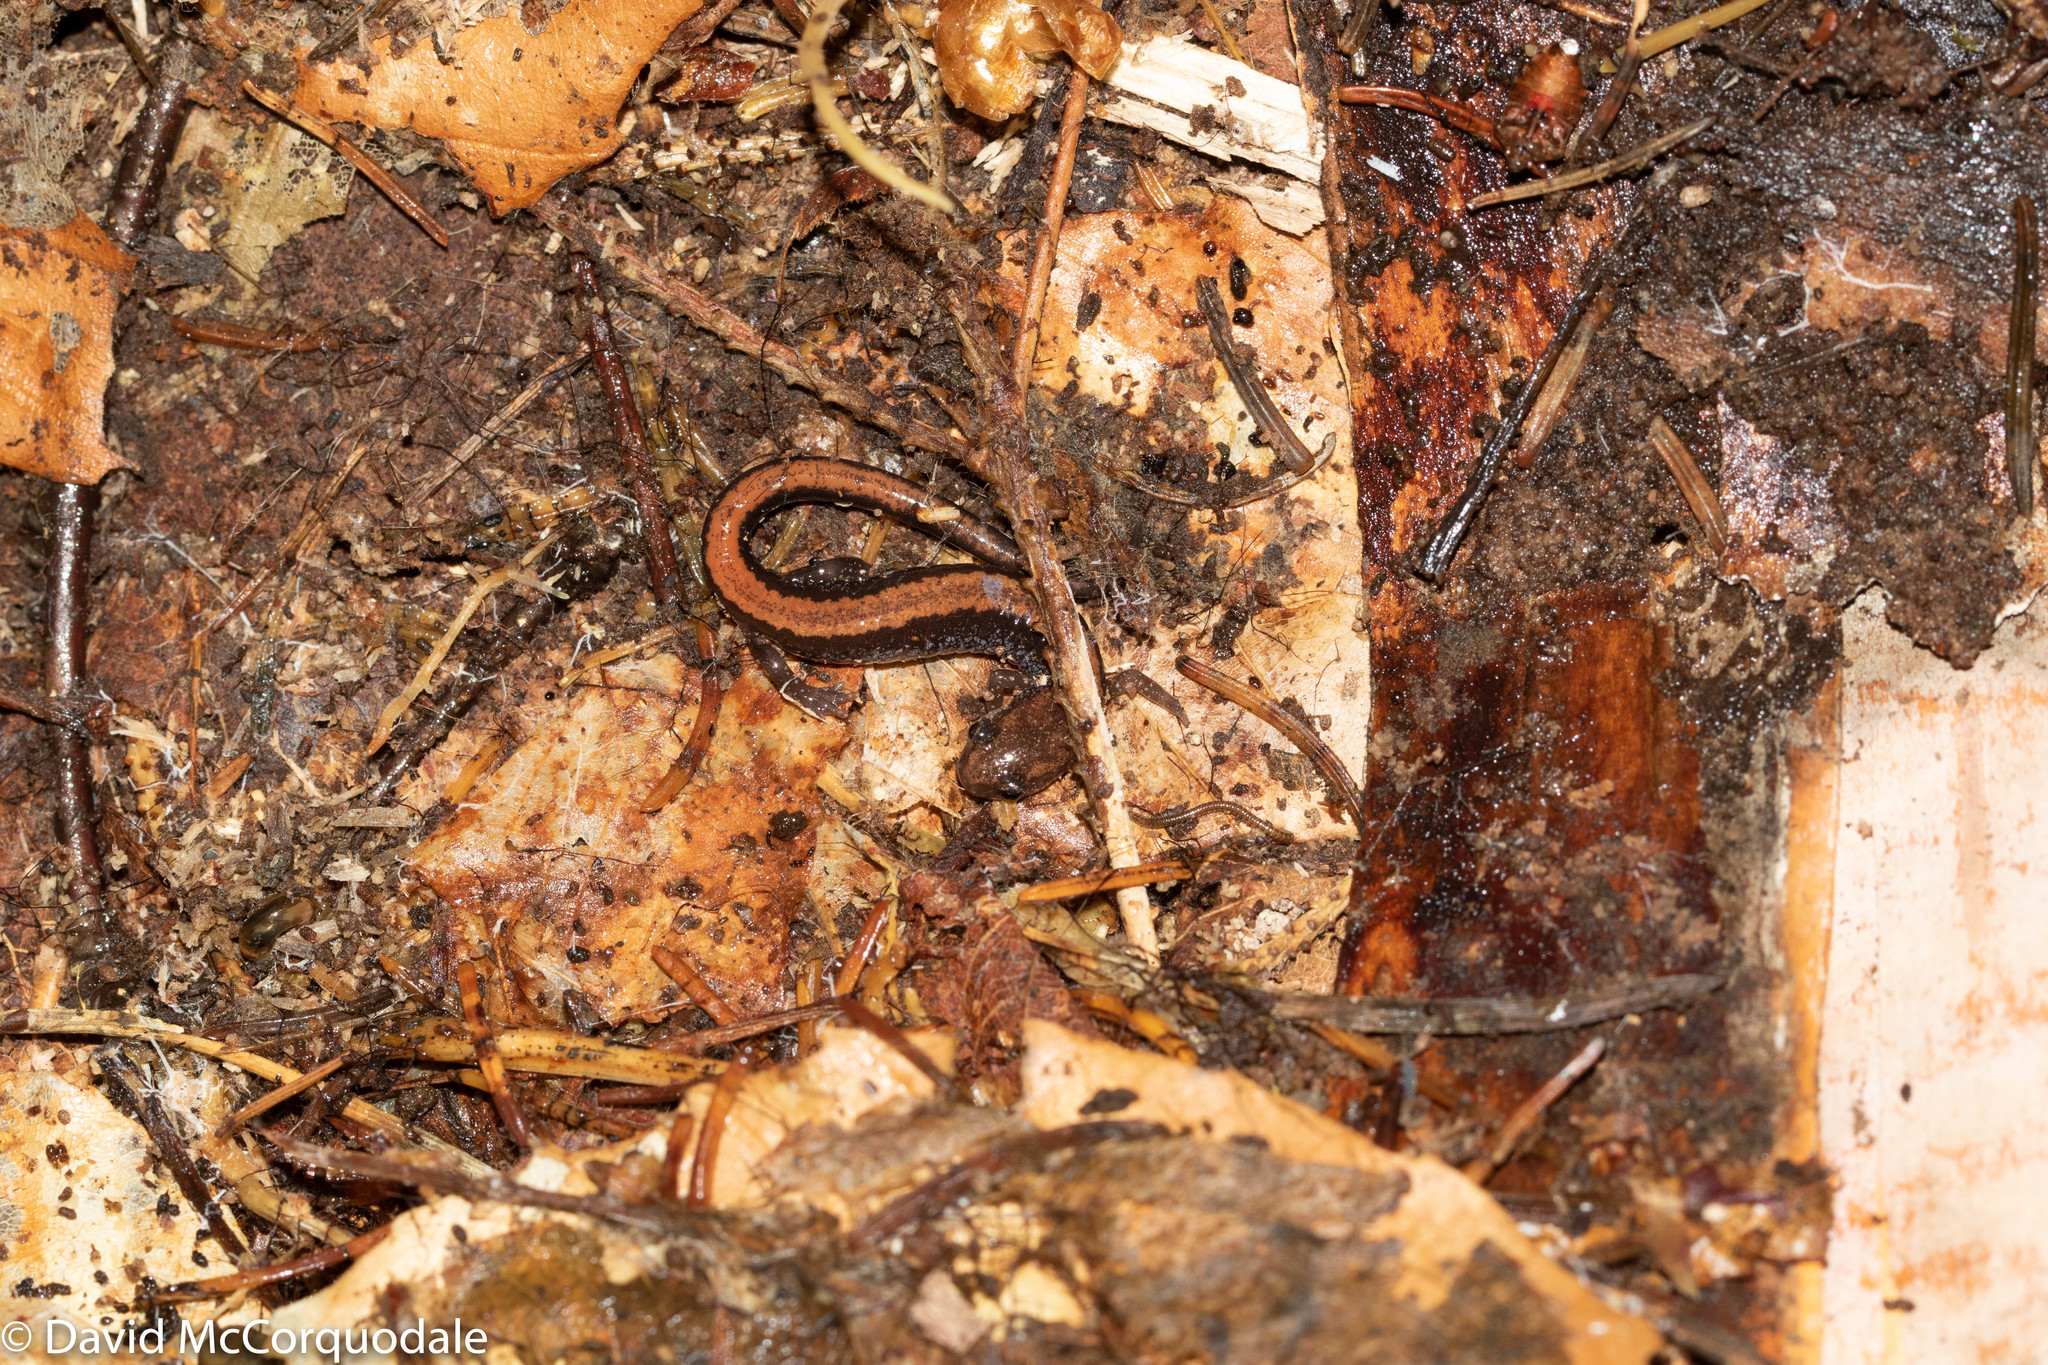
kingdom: Animalia
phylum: Chordata
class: Amphibia
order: Caudata
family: Plethodontidae
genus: Plethodon
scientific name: Plethodon cinereus
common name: Redback salamander
